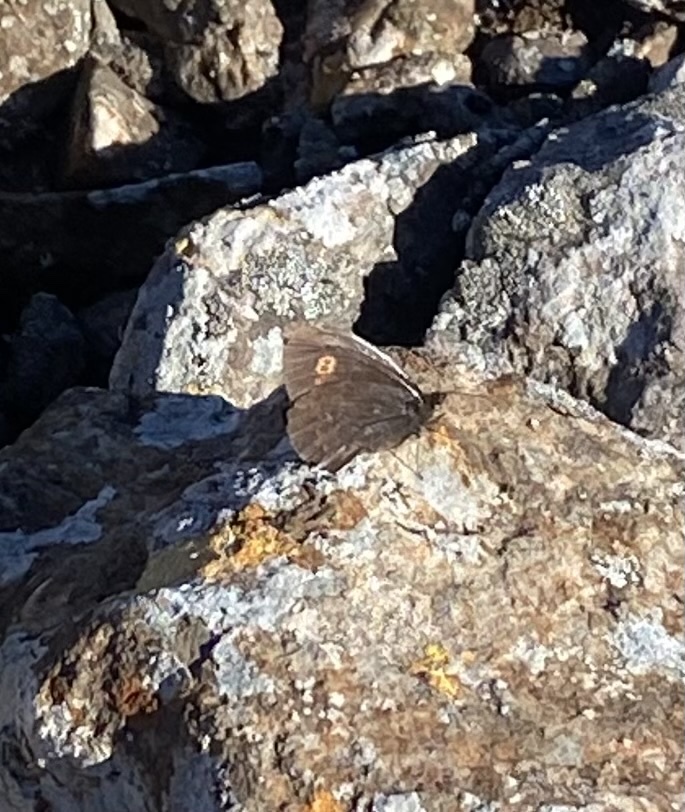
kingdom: Animalia
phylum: Arthropoda
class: Insecta
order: Lepidoptera
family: Nymphalidae
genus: Erebia
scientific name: Erebia rossii
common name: Ross' alpine
